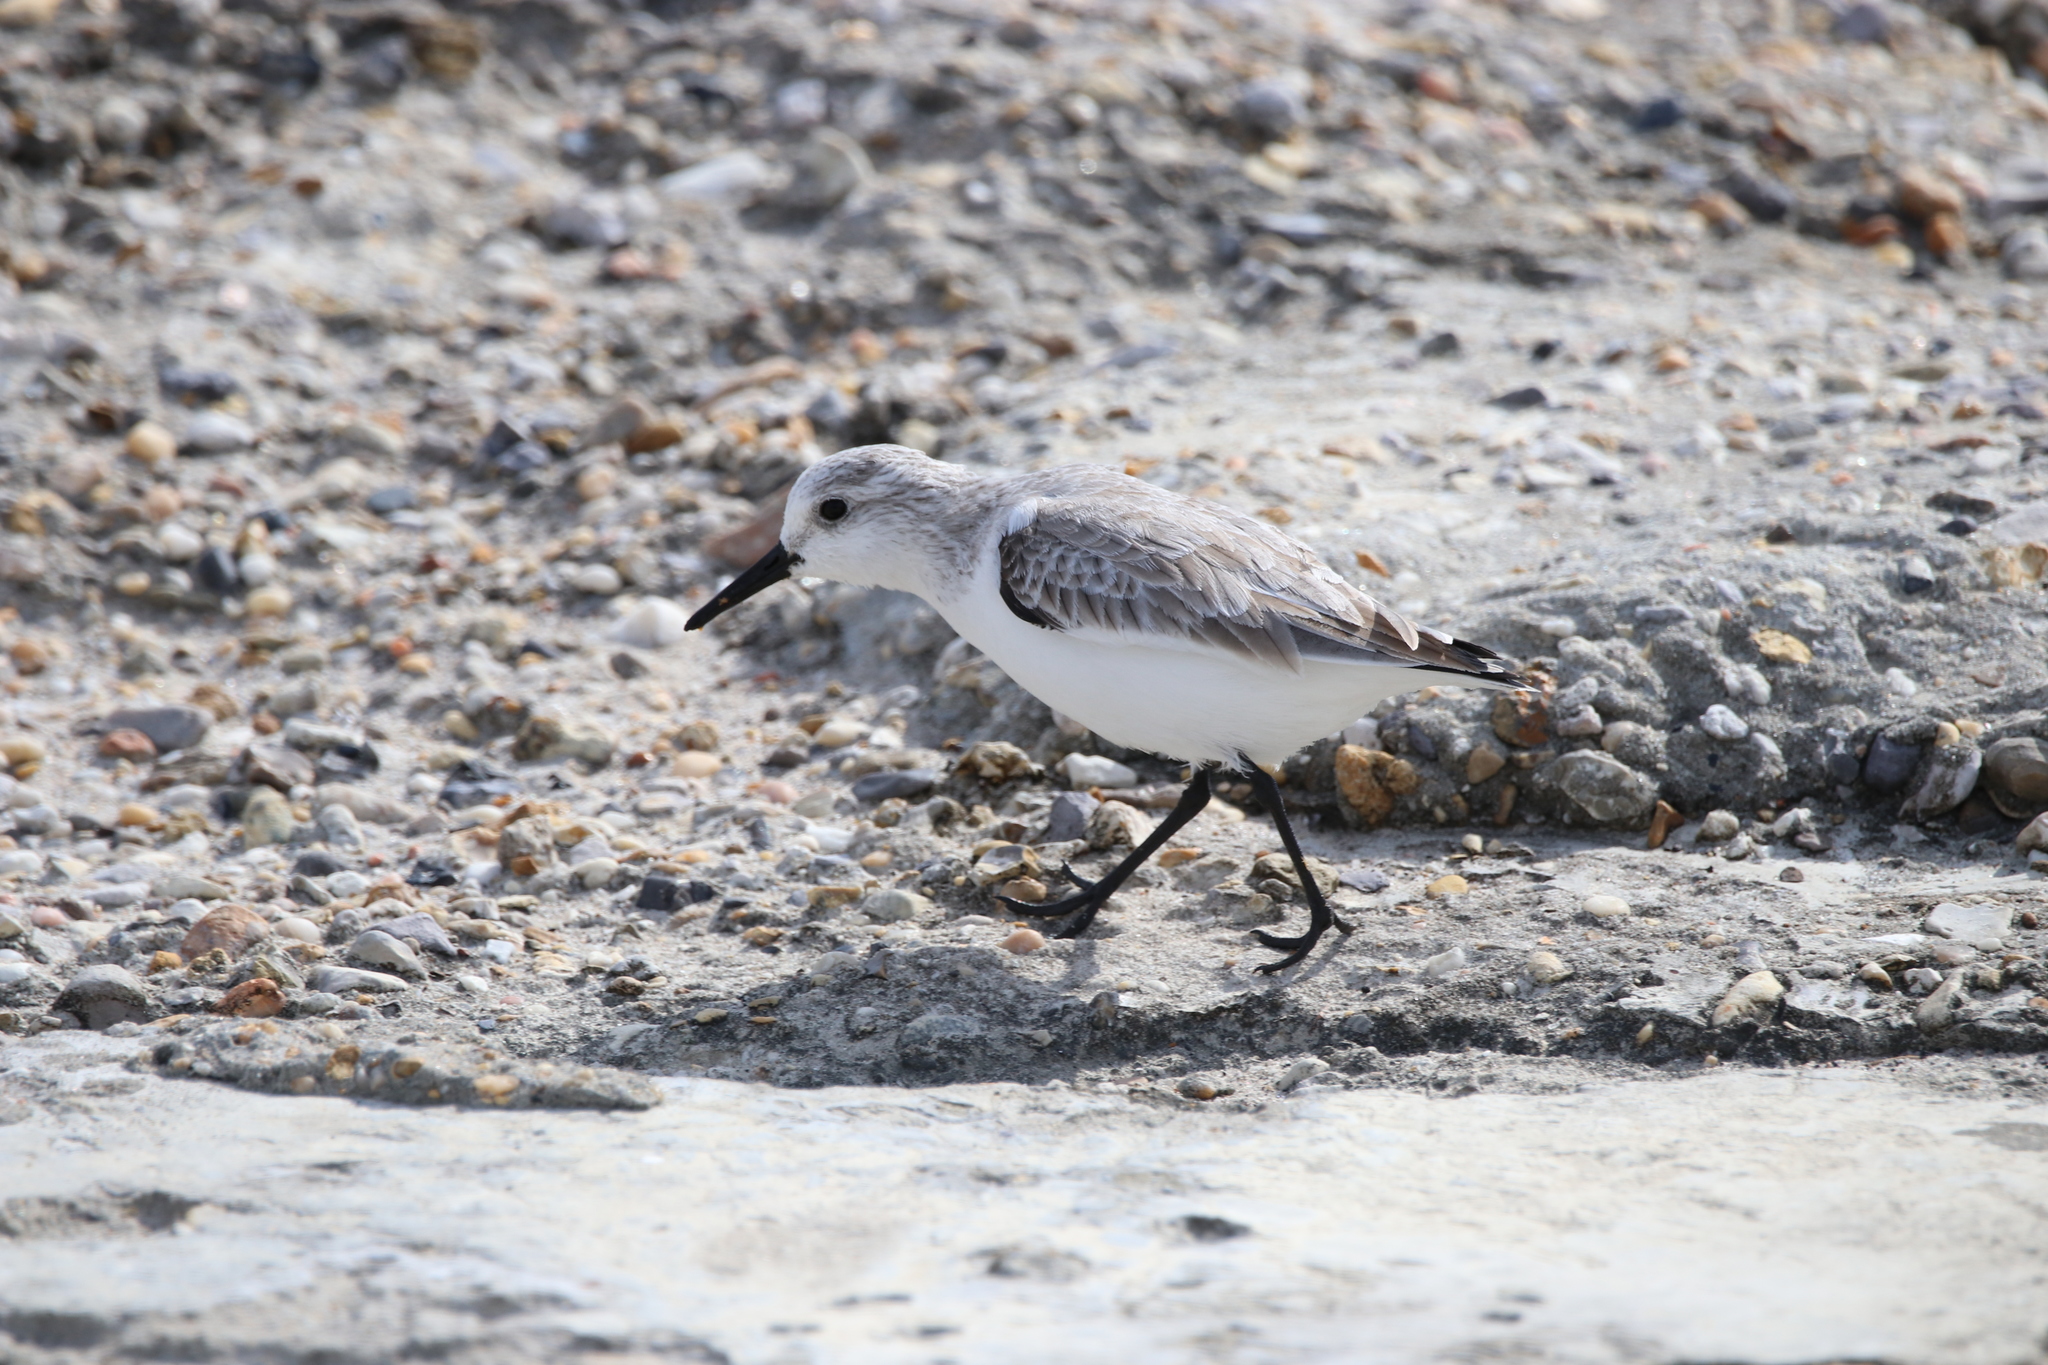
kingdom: Animalia
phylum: Chordata
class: Aves
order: Charadriiformes
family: Scolopacidae
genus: Calidris
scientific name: Calidris alba
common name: Sanderling
